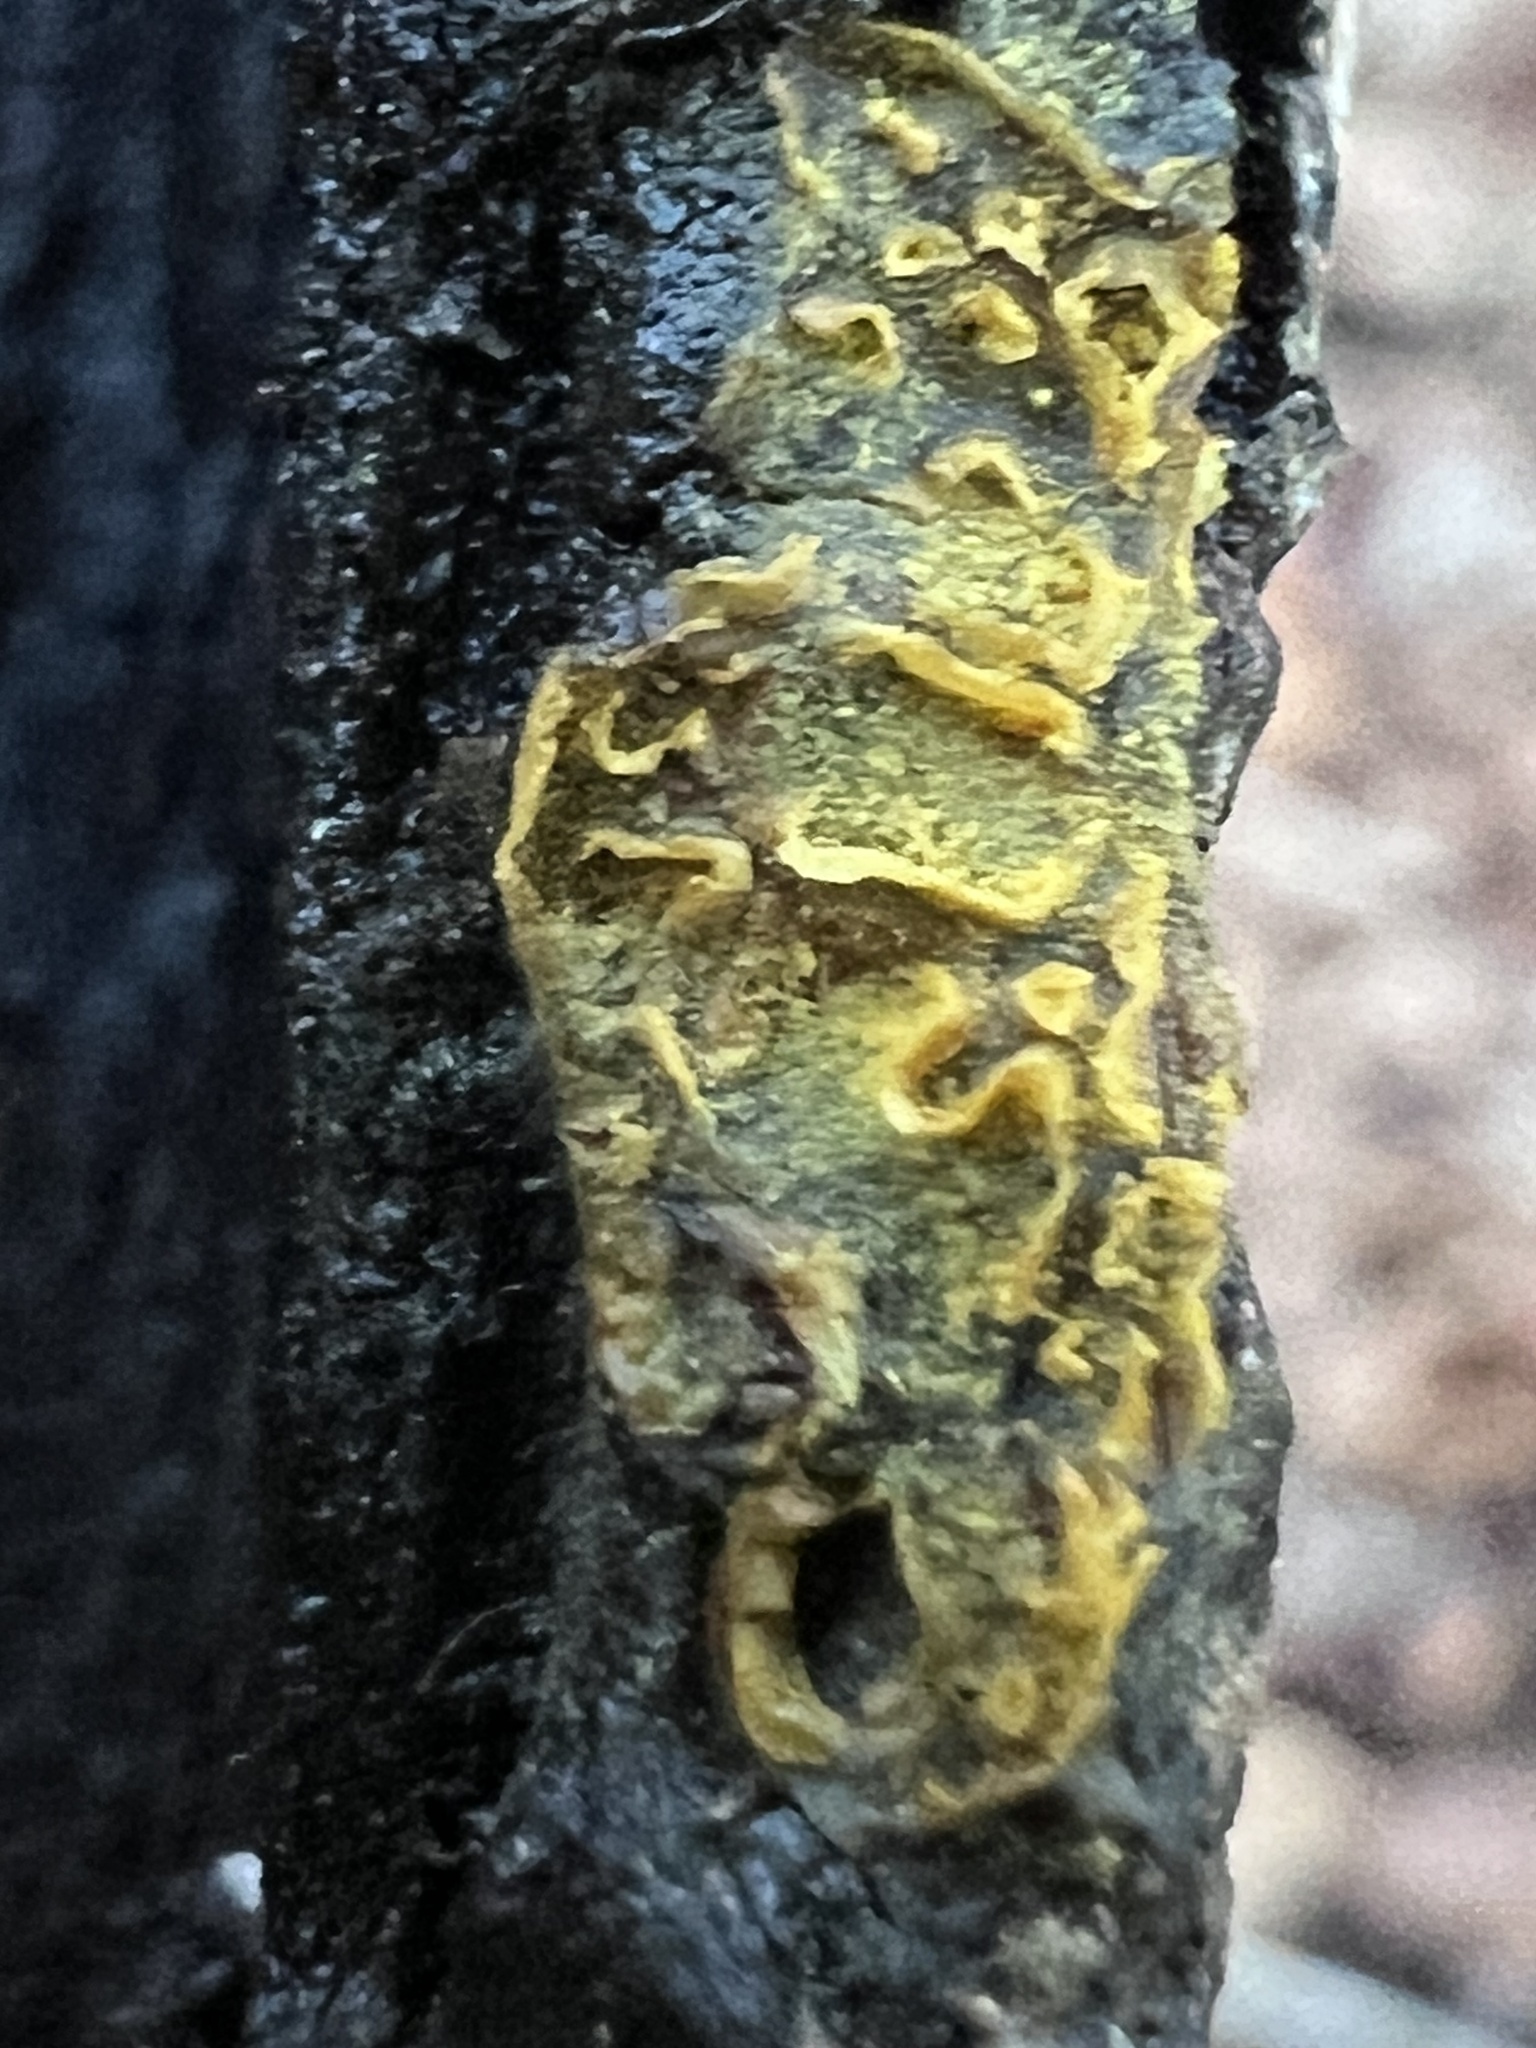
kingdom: Protozoa
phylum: Mycetozoa
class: Myxomycetes
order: Trichiales
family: Arcyriaceae
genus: Hemitrichia
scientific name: Hemitrichia serpula
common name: Pretzel slime mold
